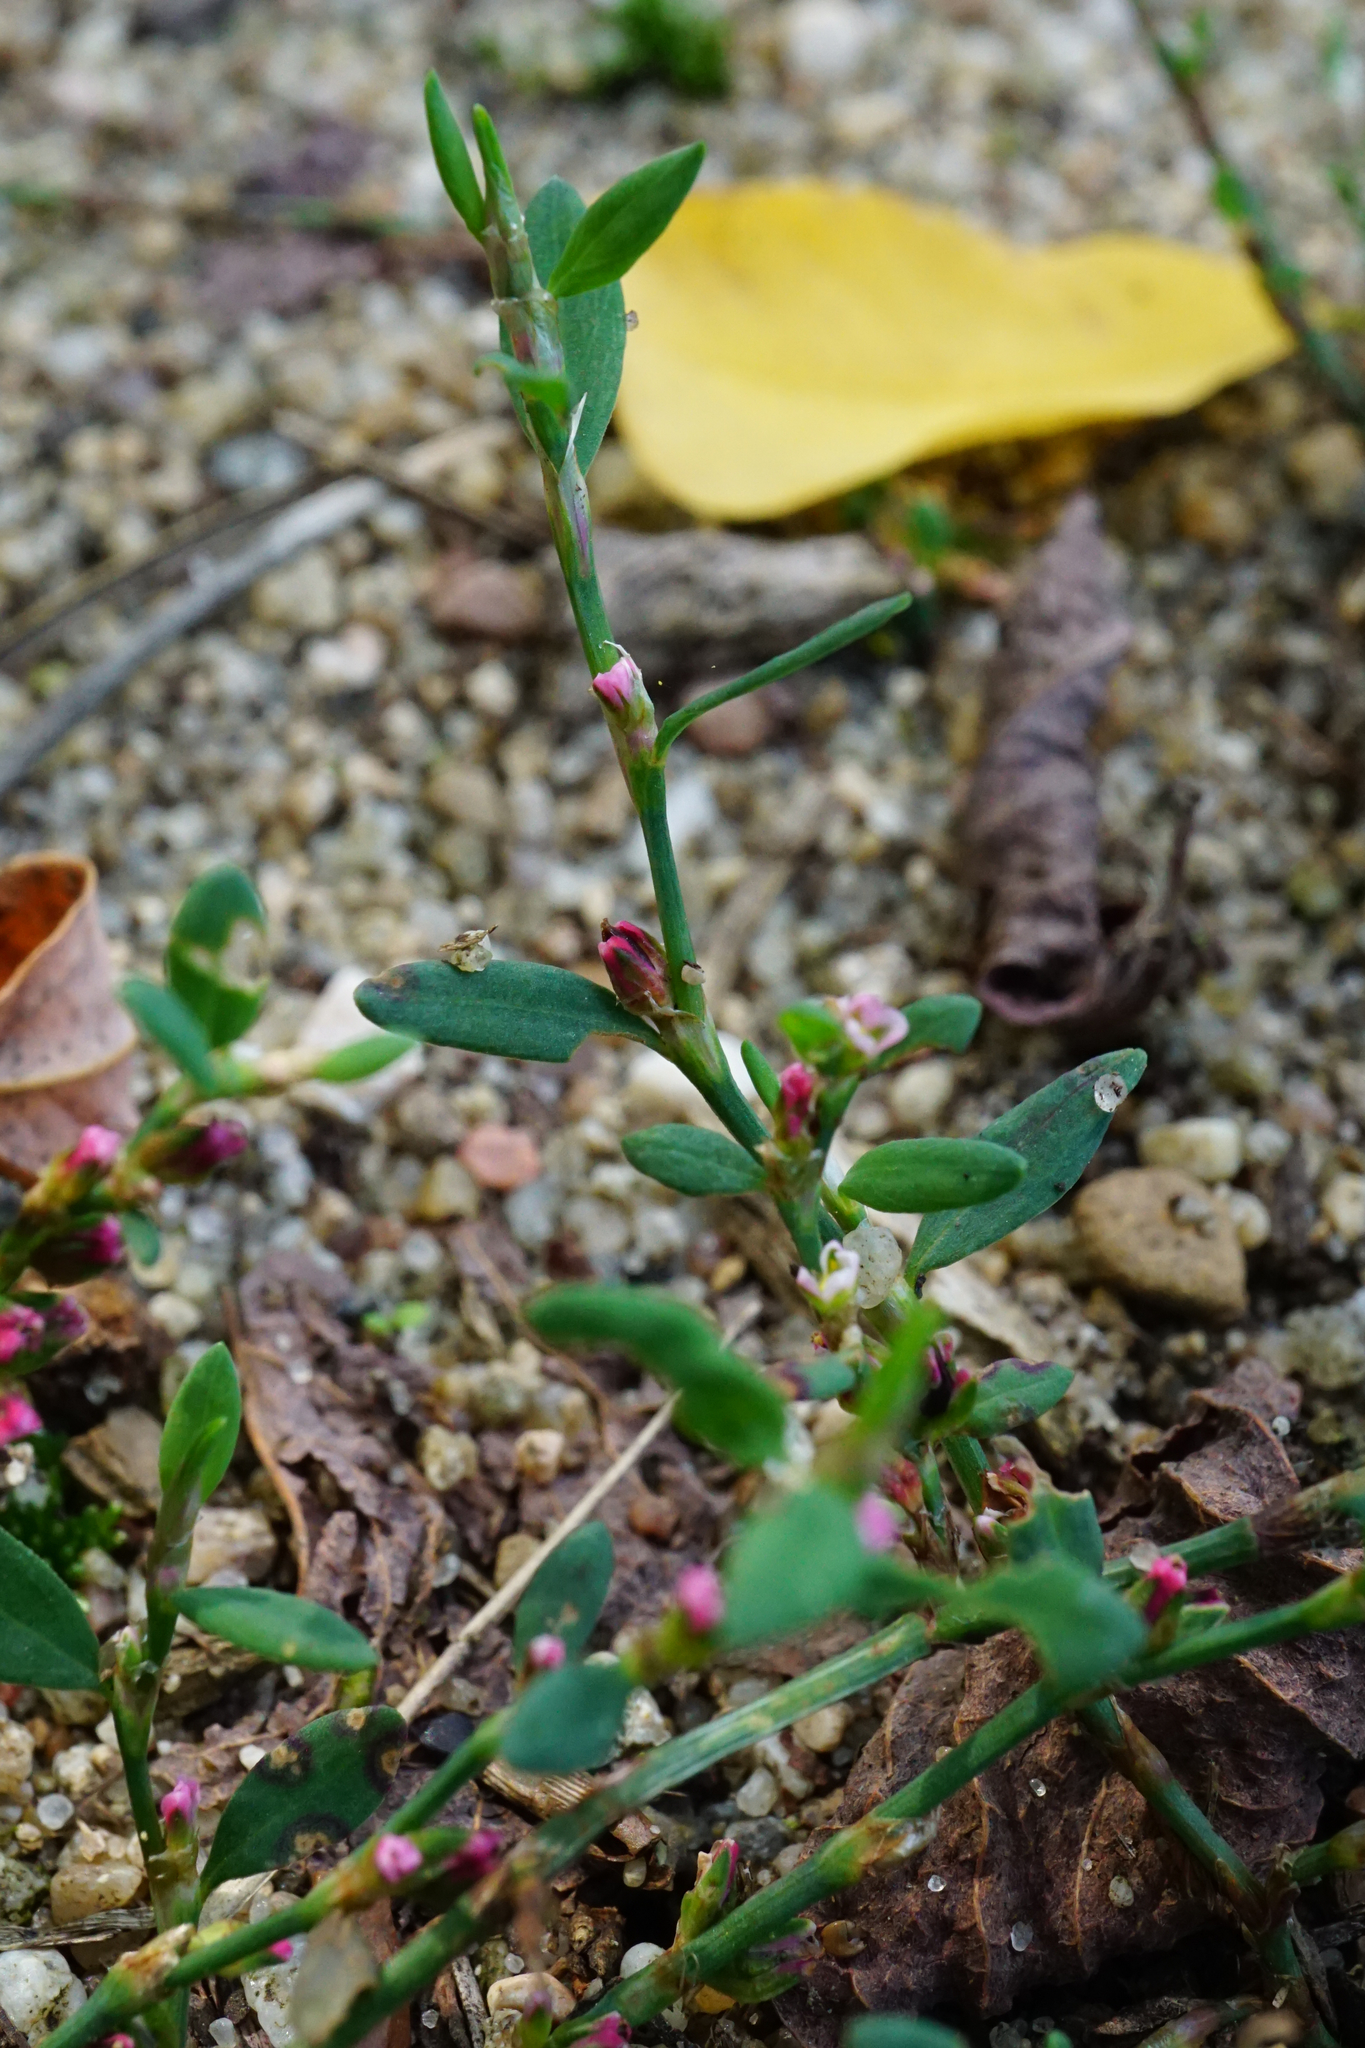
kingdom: Plantae
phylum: Tracheophyta
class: Magnoliopsida
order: Caryophyllales
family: Polygonaceae
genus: Polygonum
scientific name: Polygonum arenastrum
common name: Equal-leaved knotgrass
